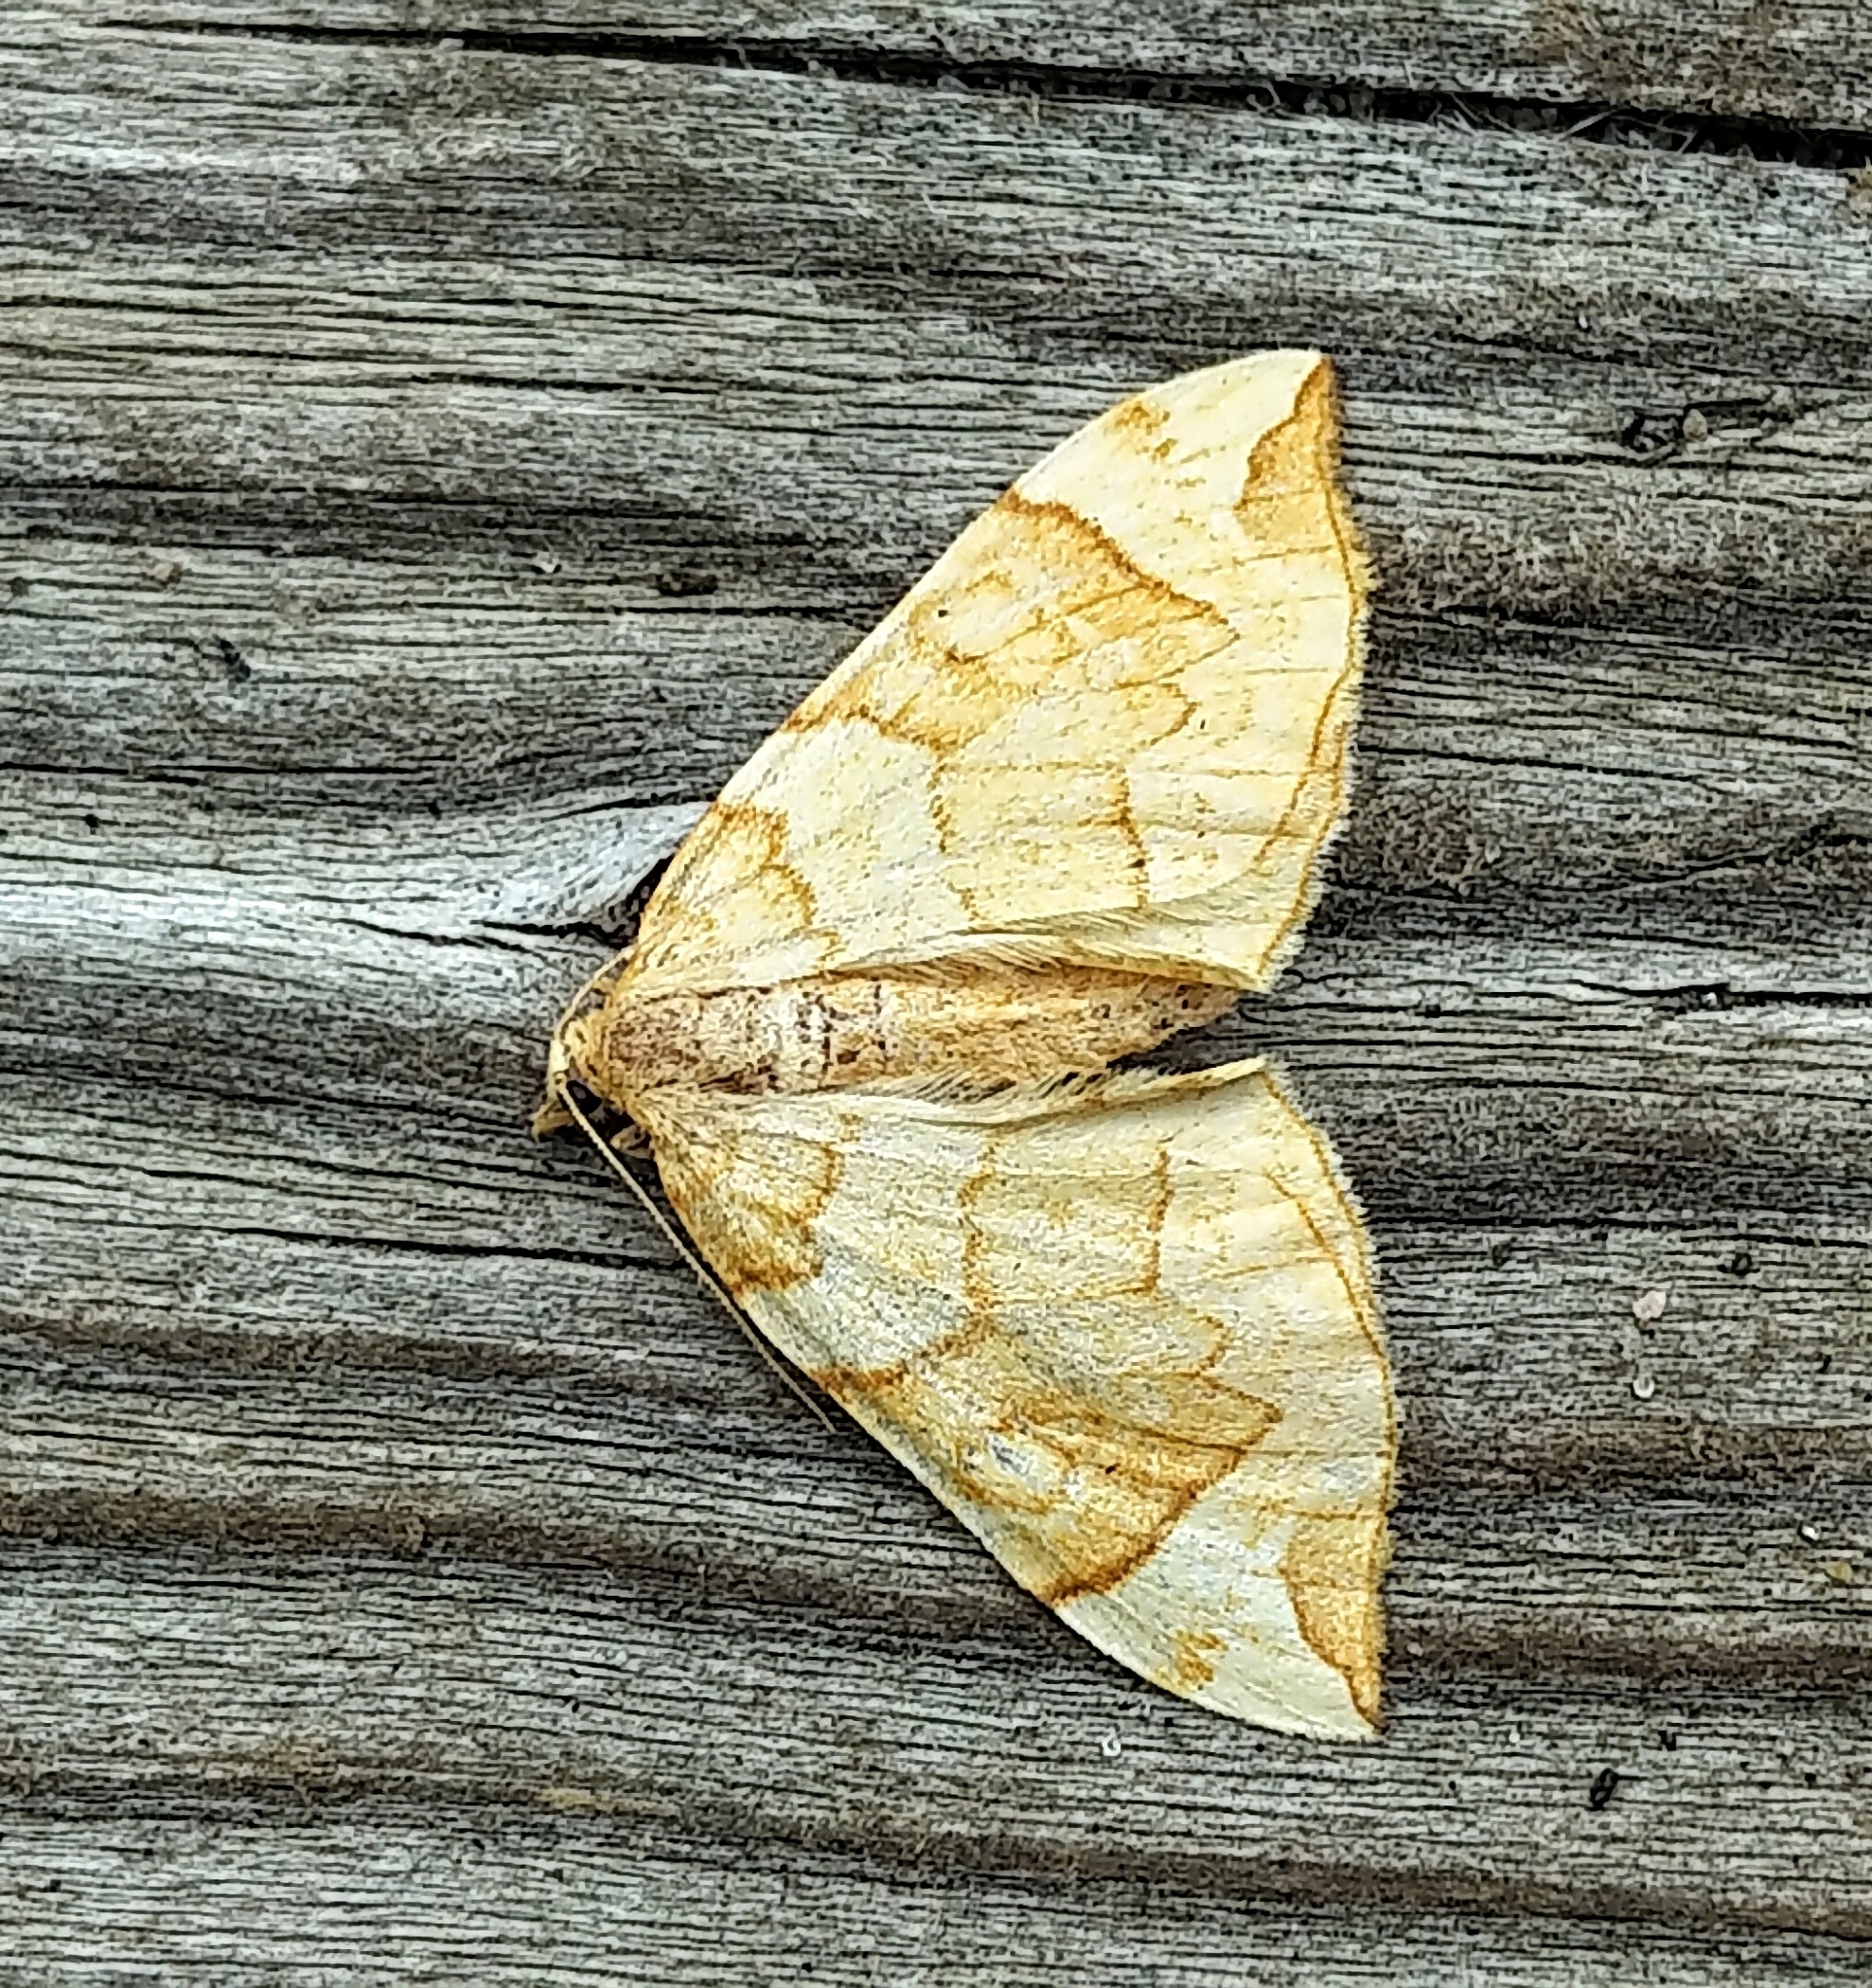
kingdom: Animalia
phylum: Arthropoda
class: Insecta
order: Lepidoptera
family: Geometridae
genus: Eulithis
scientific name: Eulithis propulsata
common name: Currant eulithis moth
